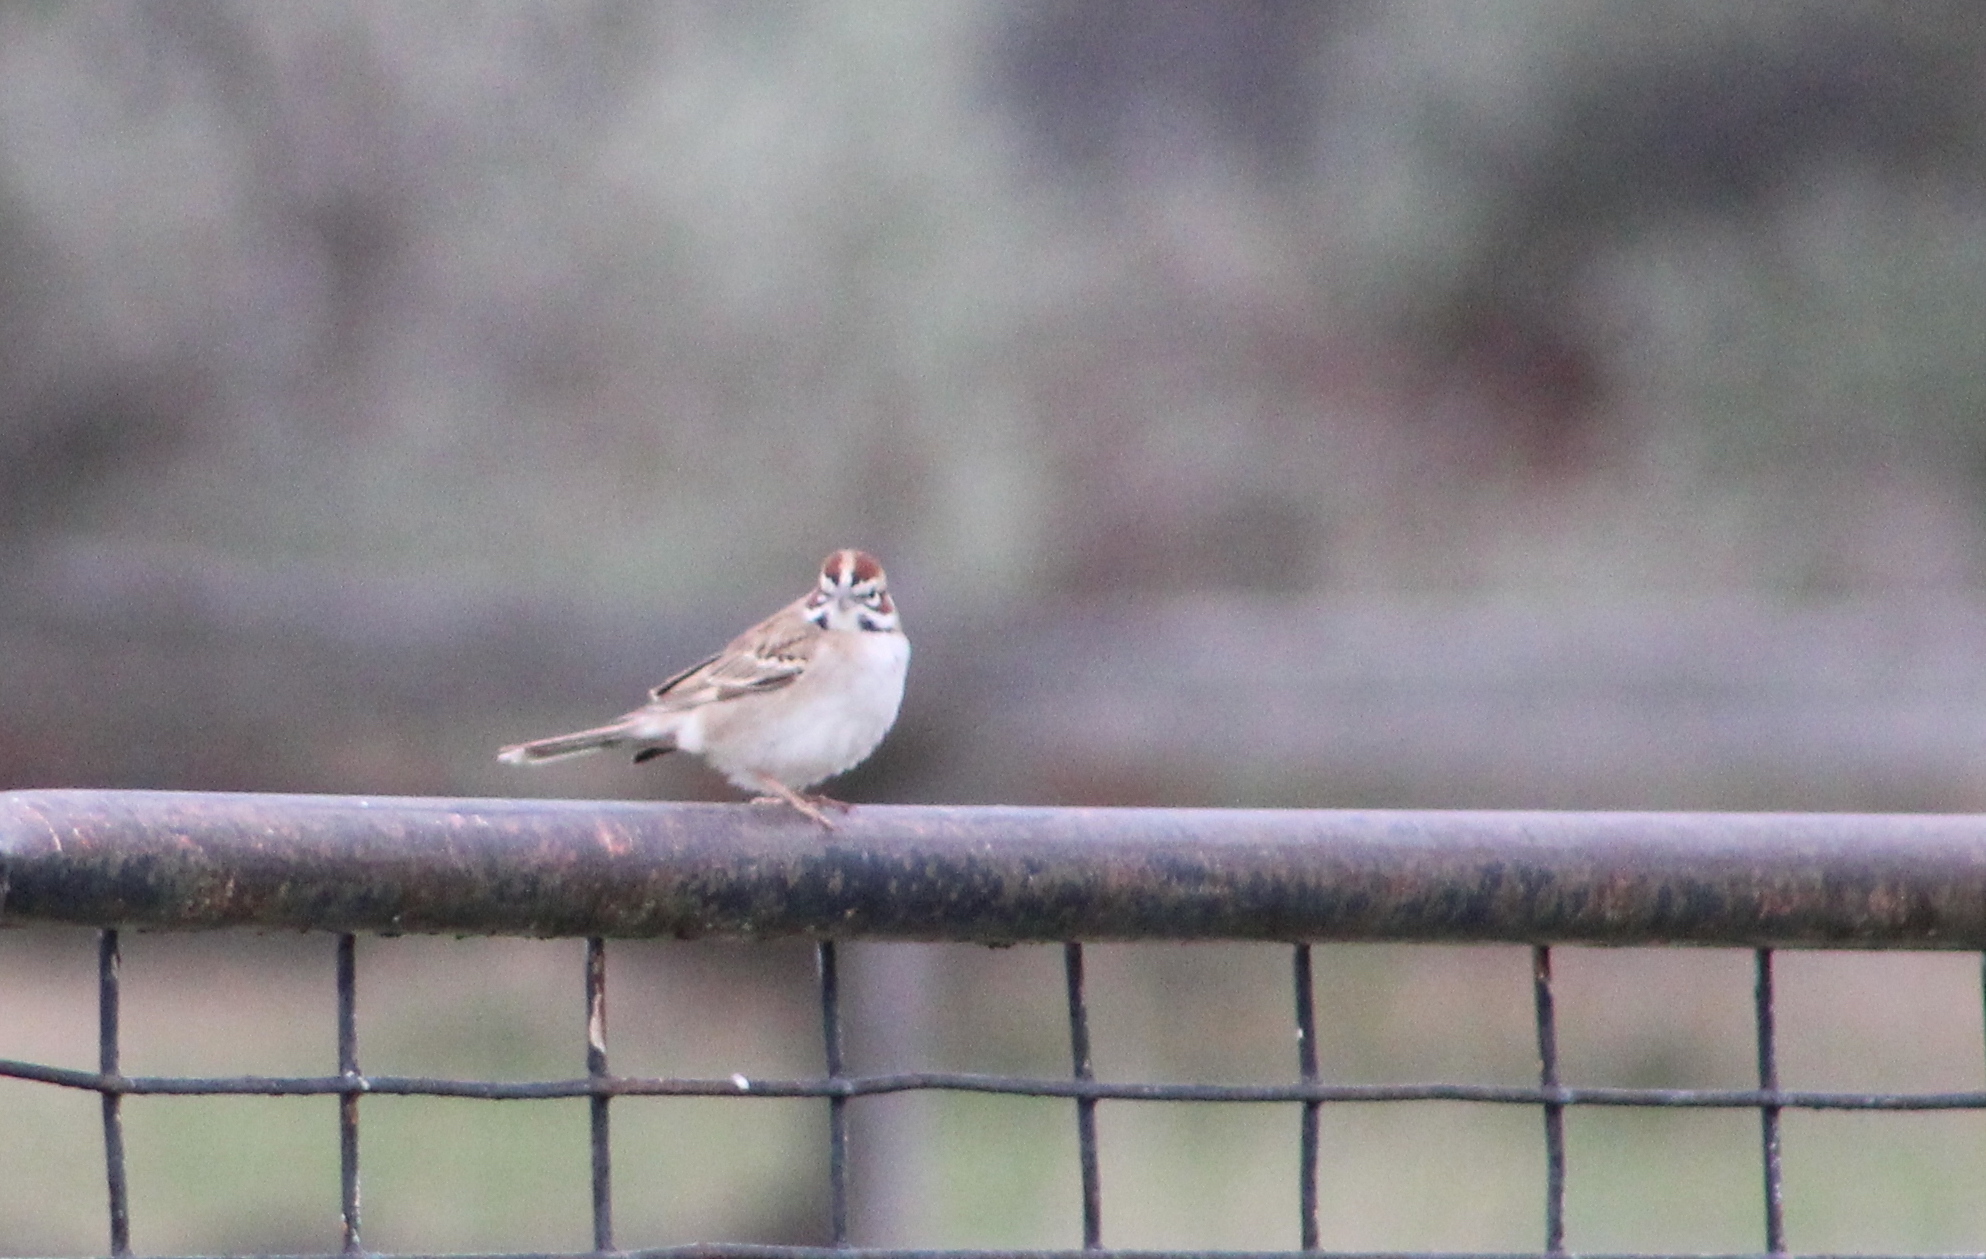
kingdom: Animalia
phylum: Chordata
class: Aves
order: Passeriformes
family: Passerellidae
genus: Chondestes
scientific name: Chondestes grammacus
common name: Lark sparrow
